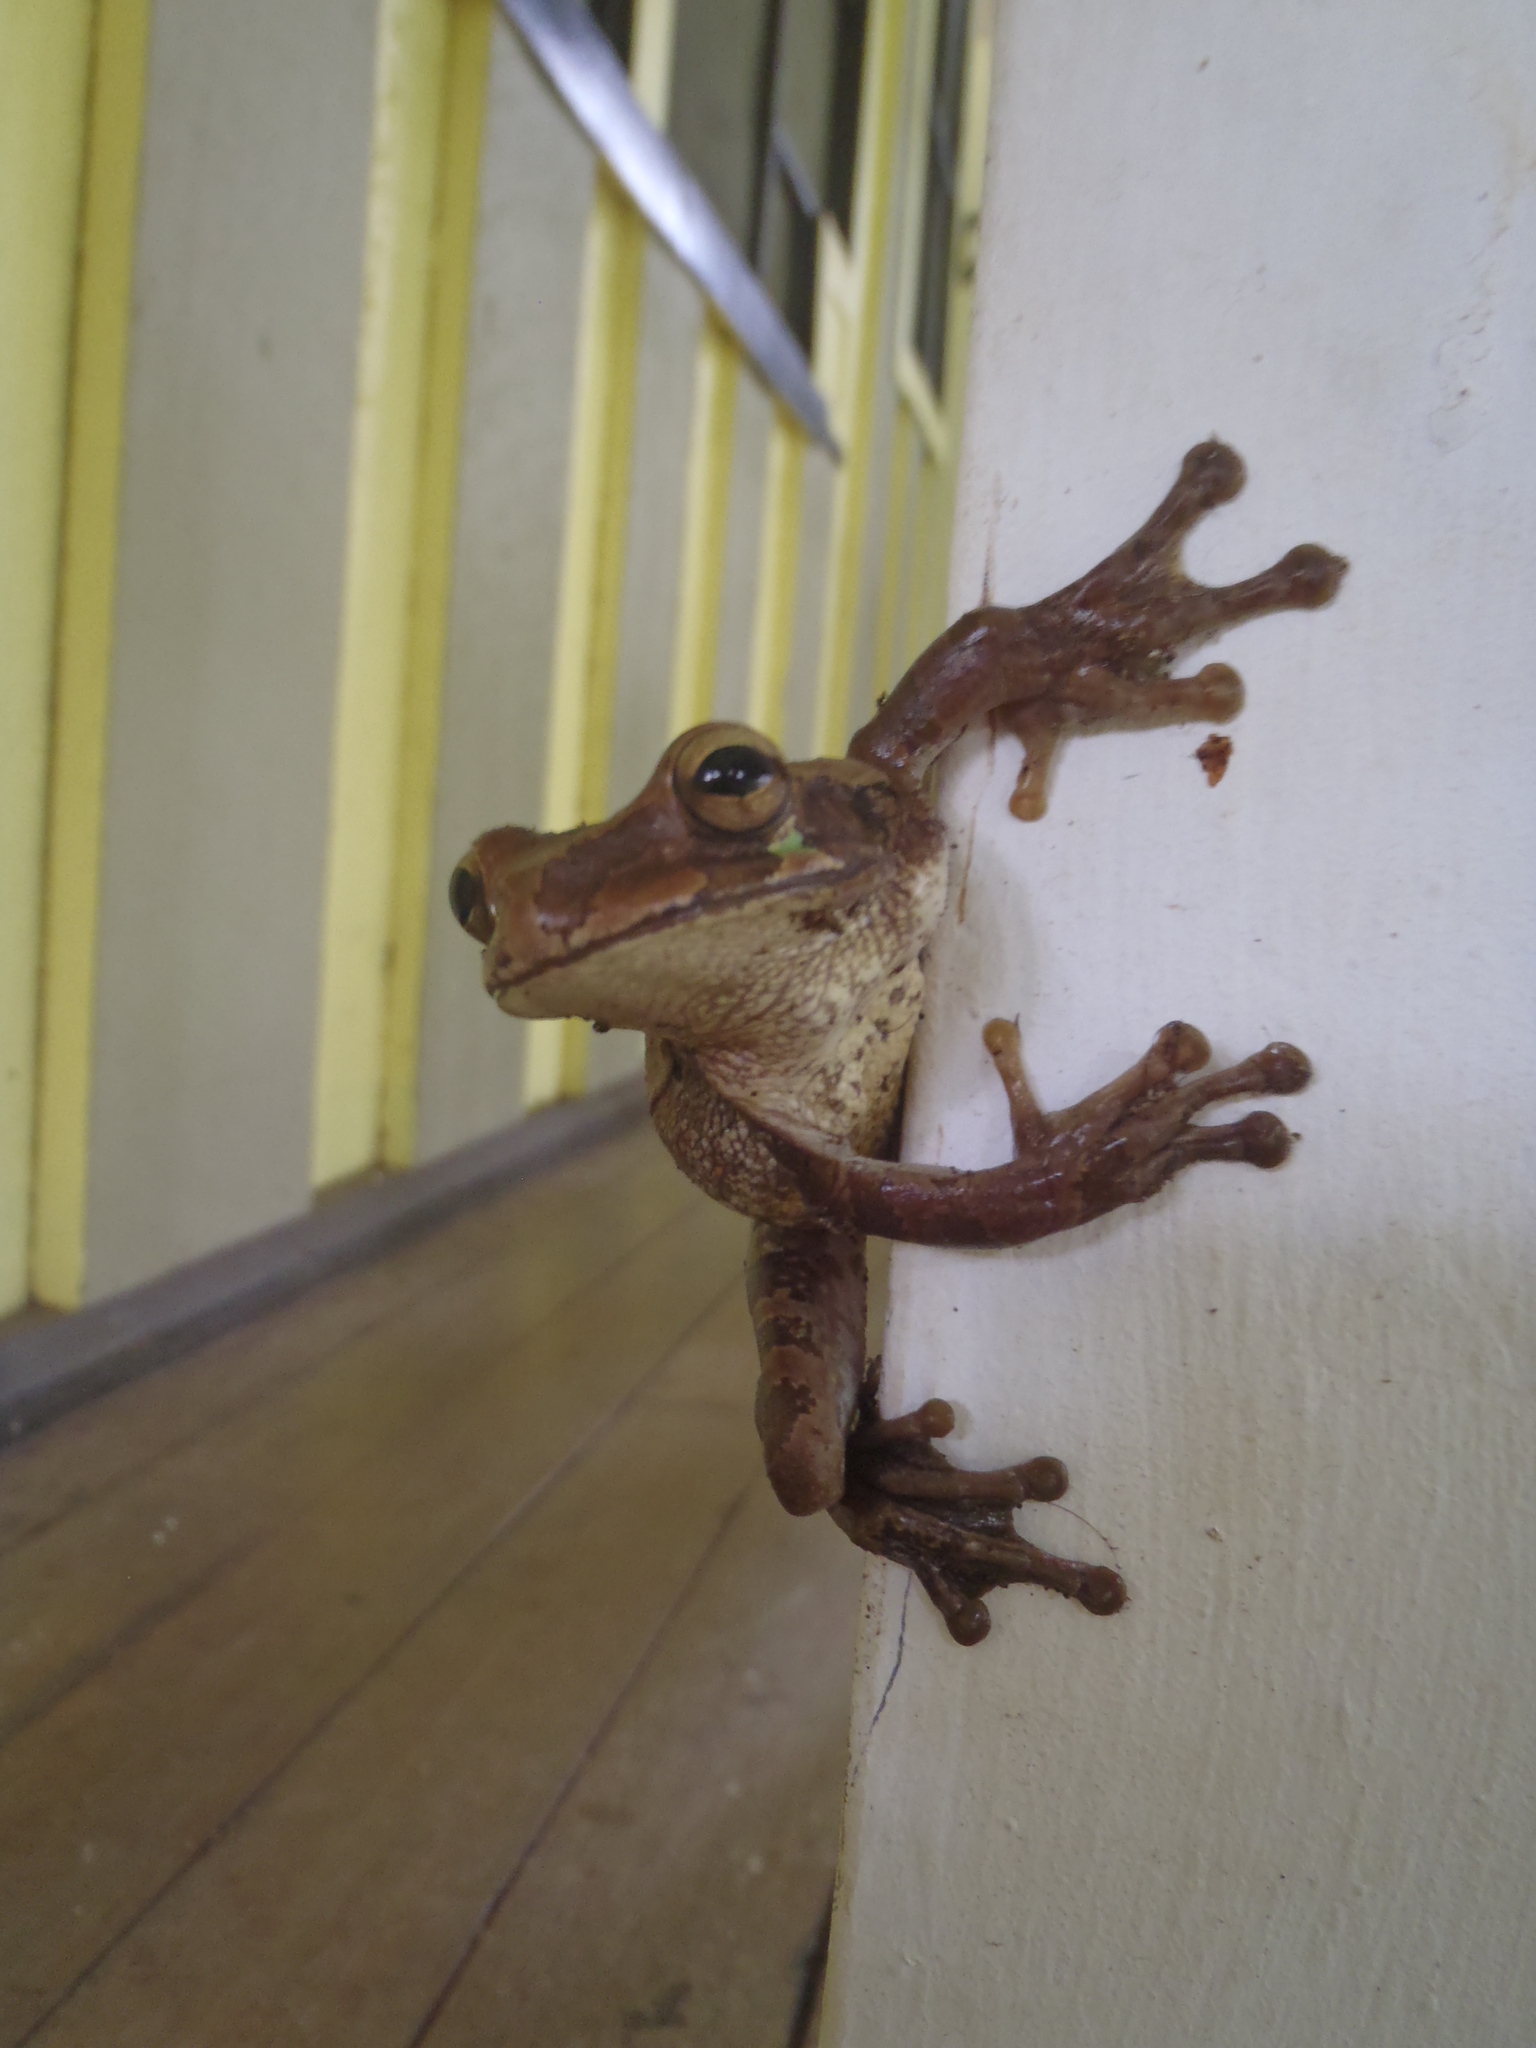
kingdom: Animalia
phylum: Chordata
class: Amphibia
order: Anura
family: Hylidae
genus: Smilisca
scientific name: Smilisca manisorum
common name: Masked tree frog
